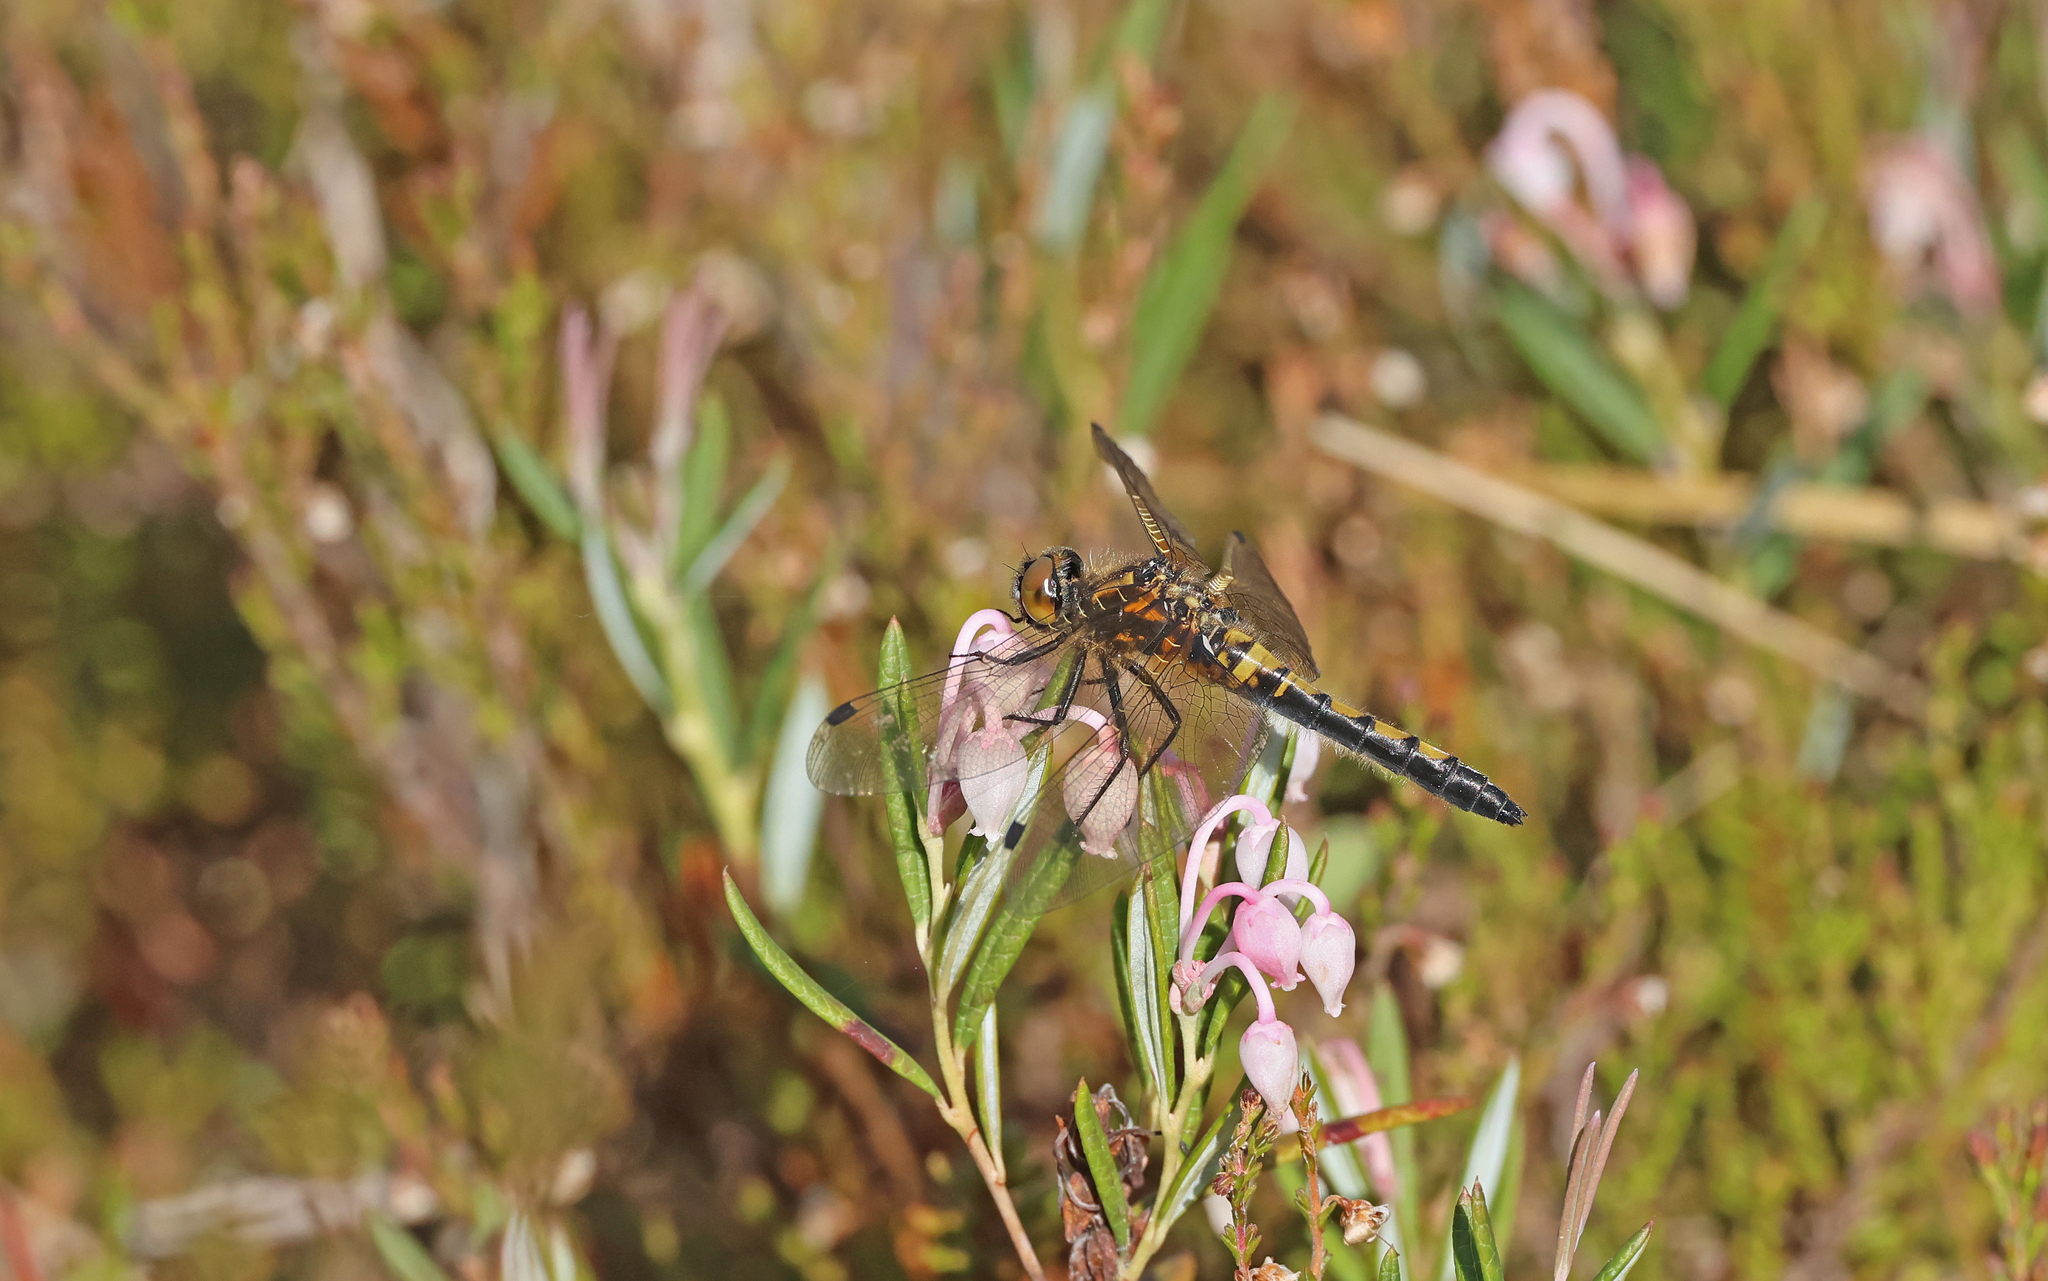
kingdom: Animalia
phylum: Arthropoda
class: Insecta
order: Odonata
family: Libellulidae
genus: Leucorrhinia
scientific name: Leucorrhinia rubicunda
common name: Ruby whiteface
